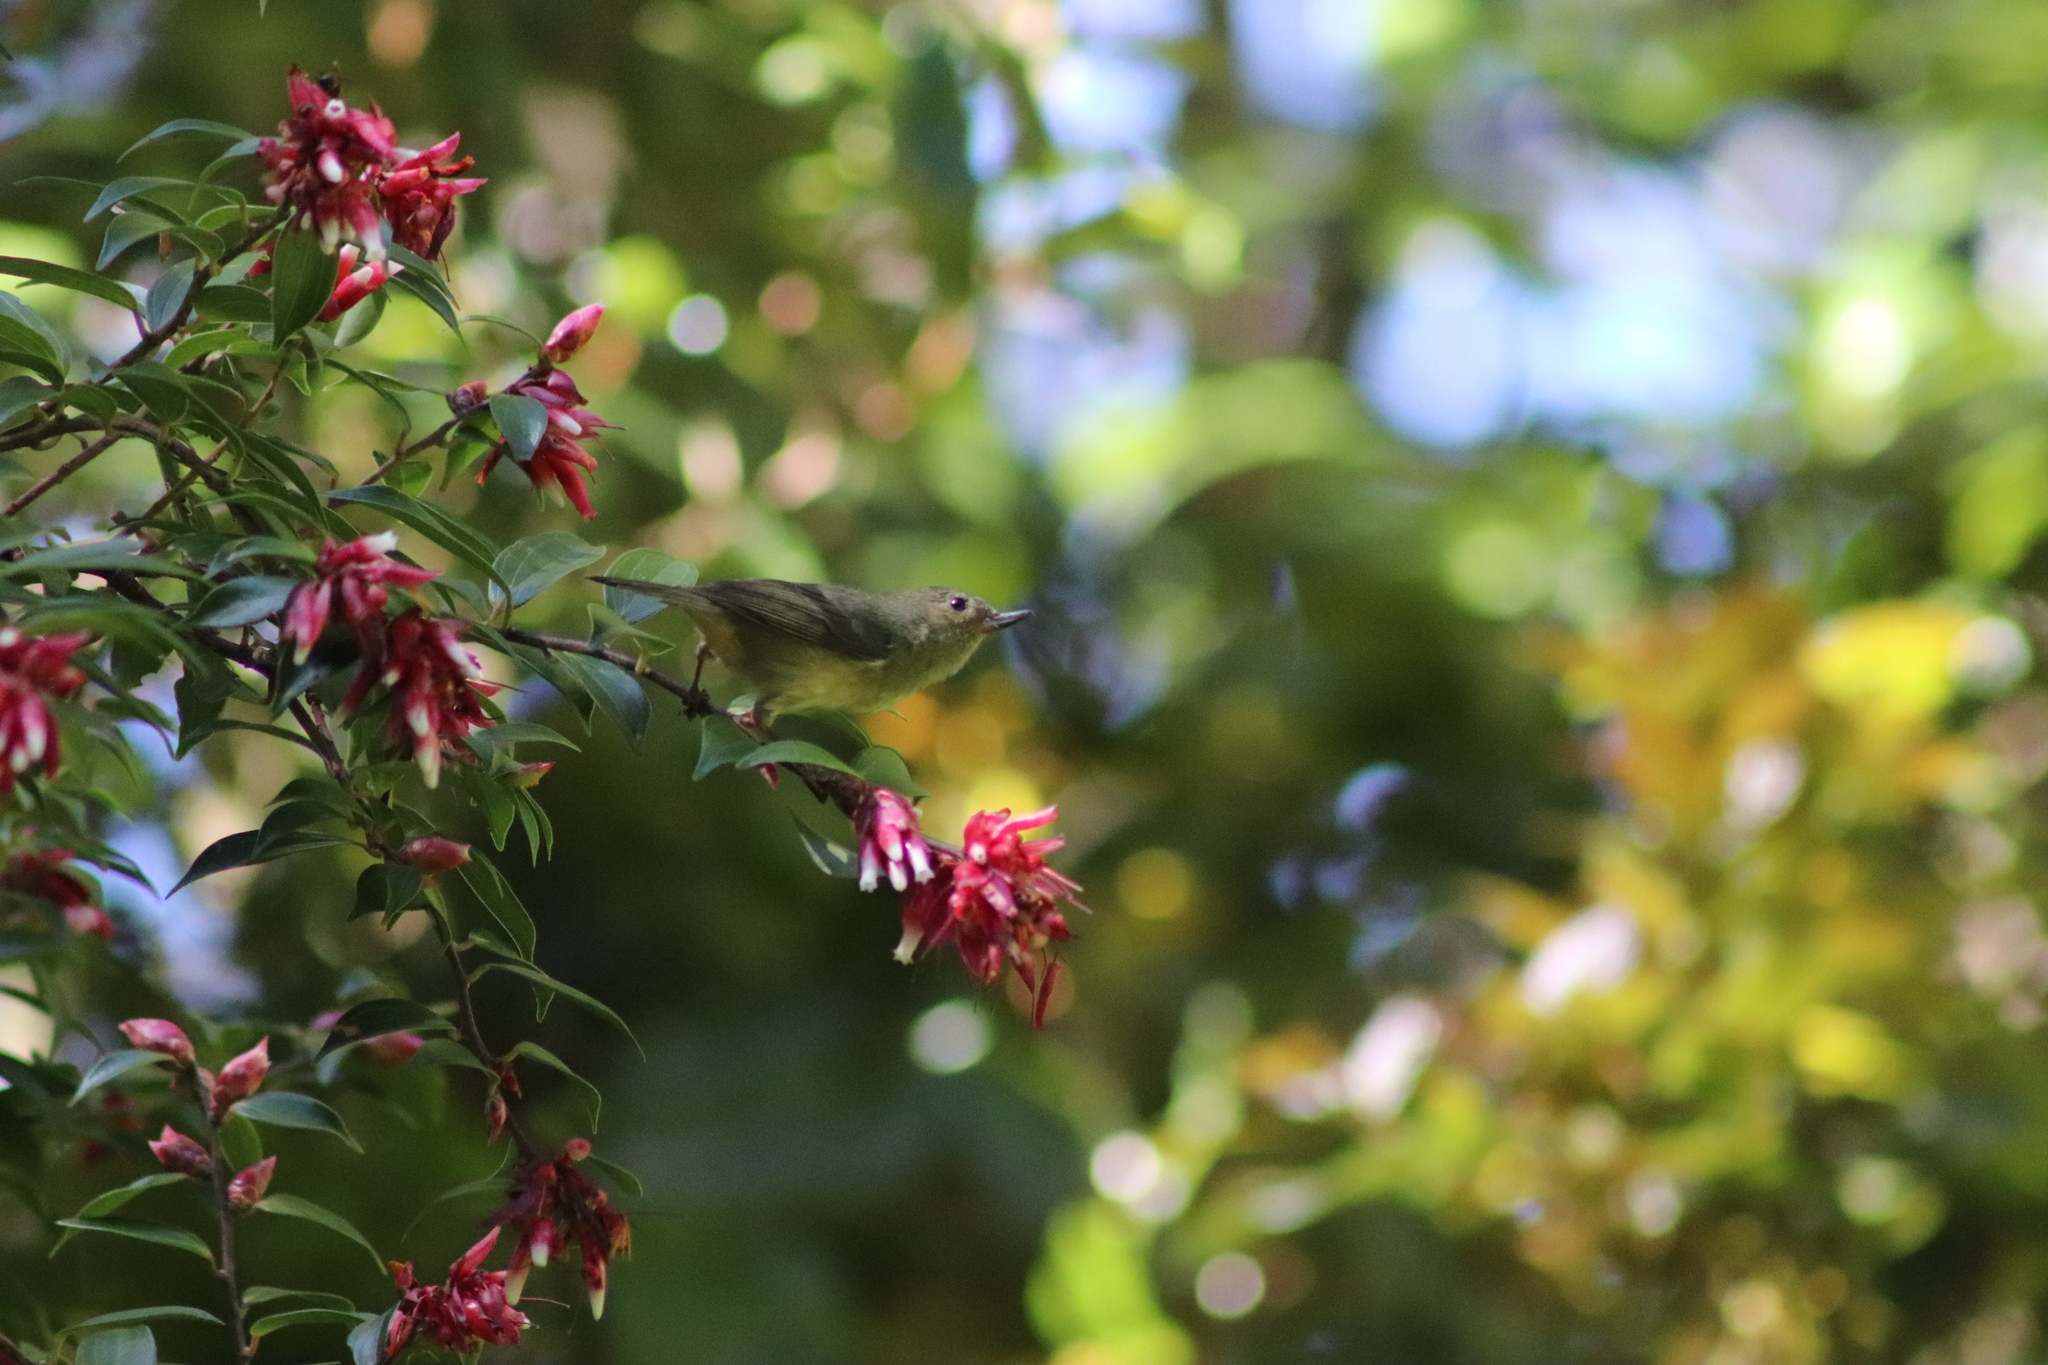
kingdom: Animalia
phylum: Chordata
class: Aves
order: Passeriformes
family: Thraupidae
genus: Diglossa
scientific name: Diglossa plumbea
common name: Slaty flowerpiercer
